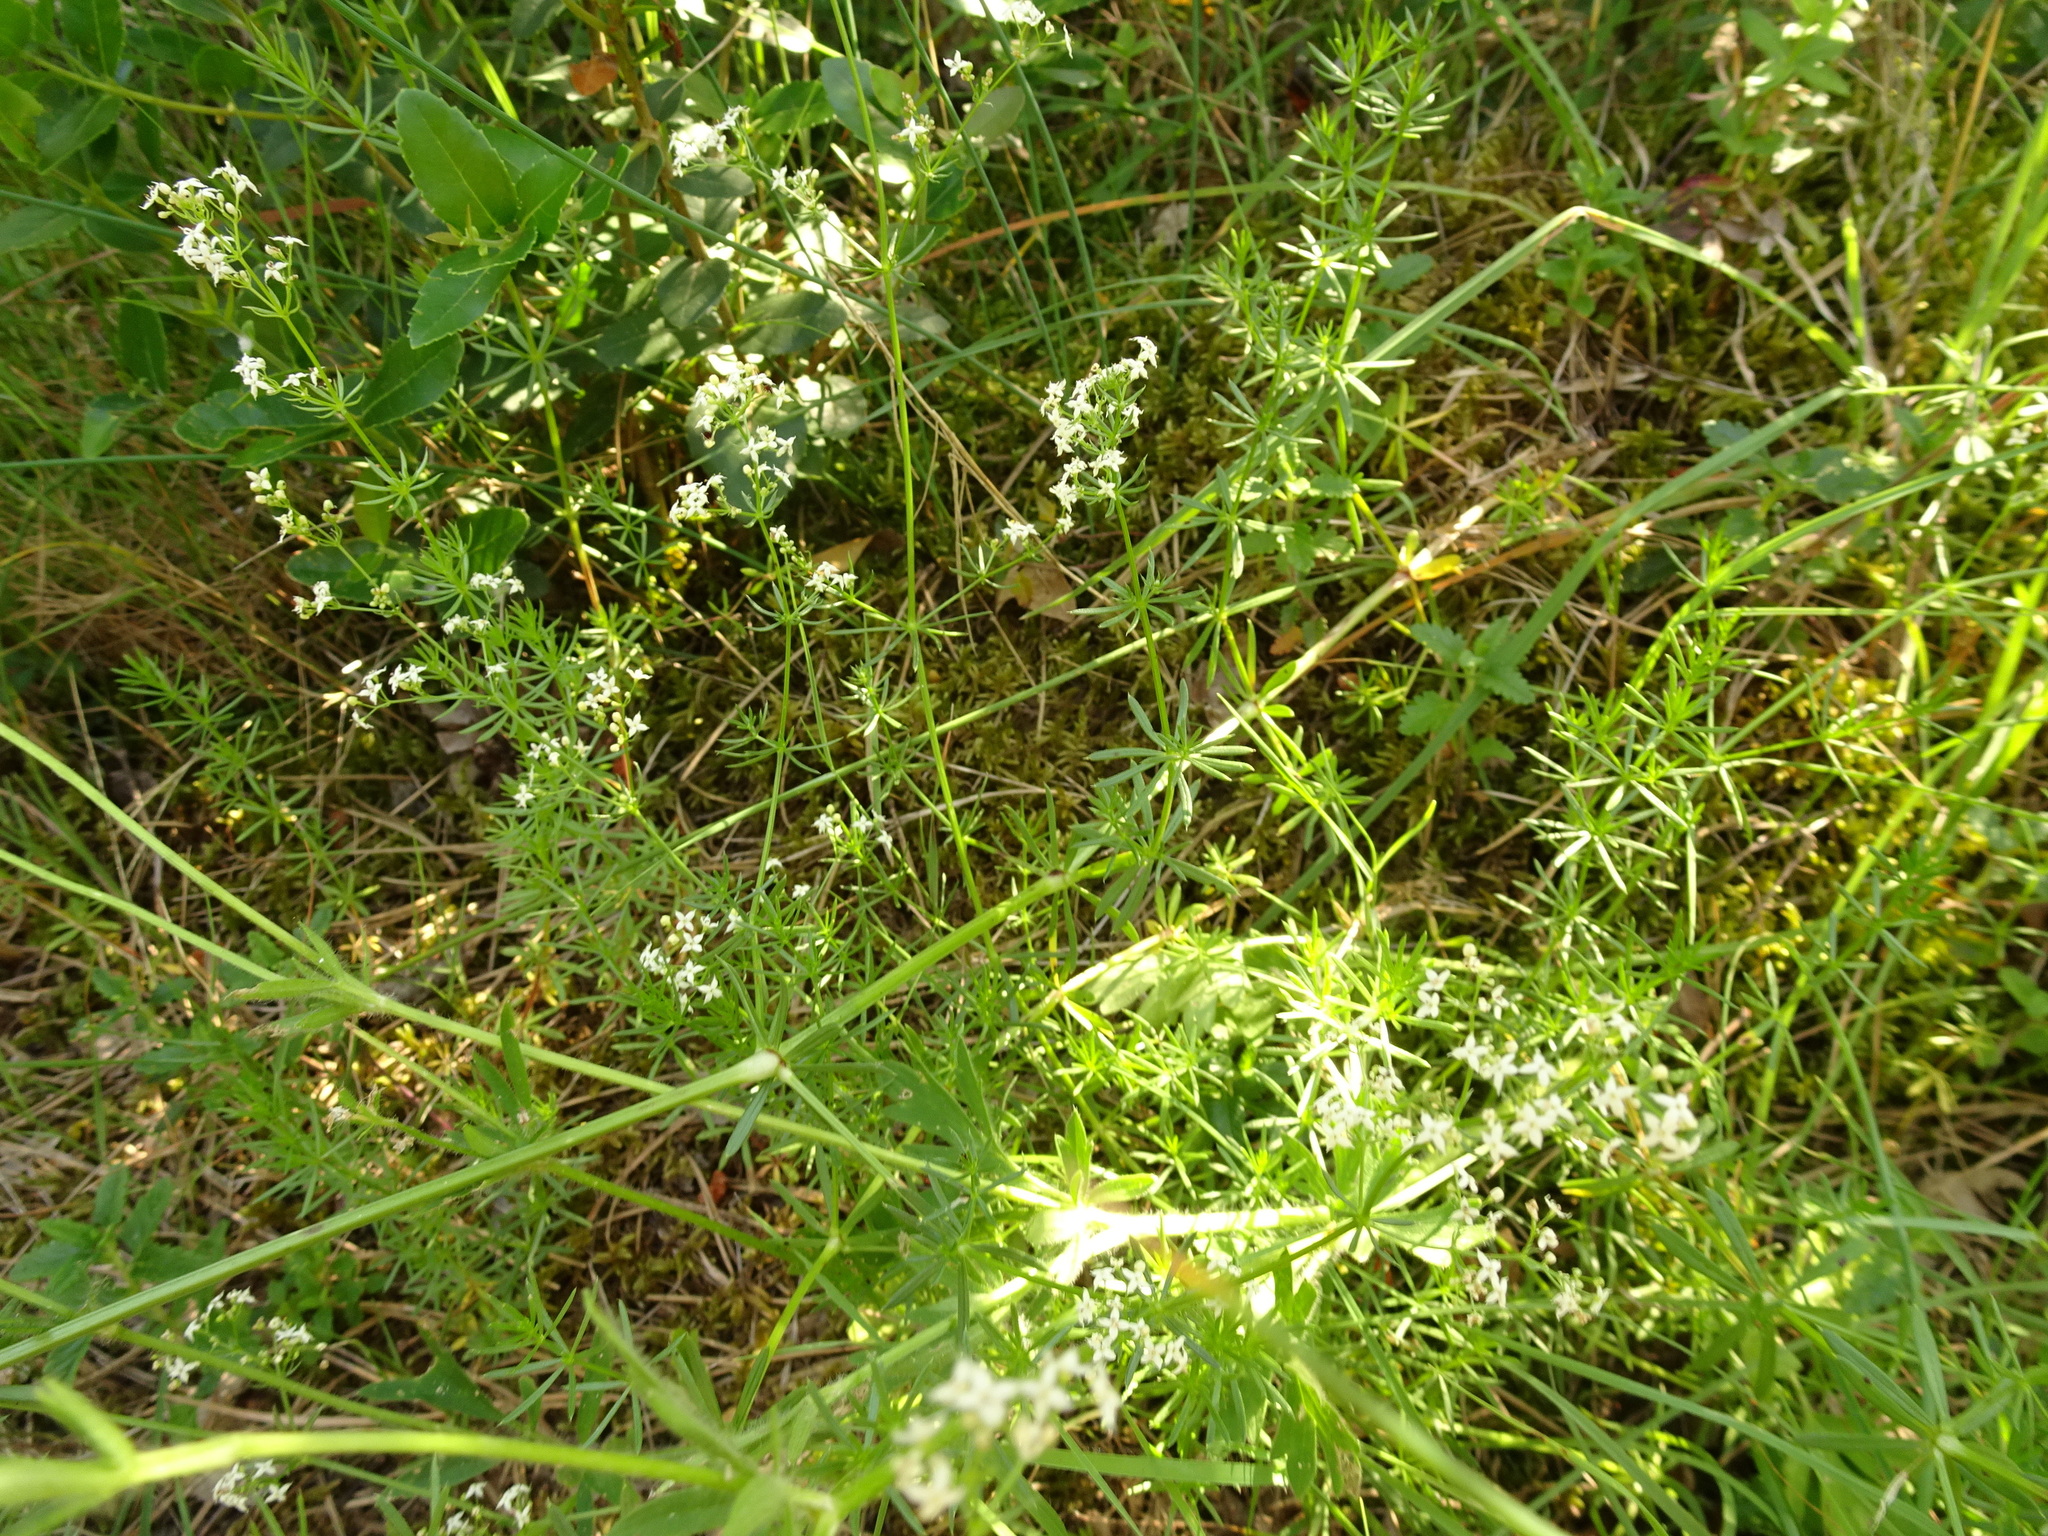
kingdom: Plantae
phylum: Tracheophyta
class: Magnoliopsida
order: Gentianales
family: Rubiaceae
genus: Galium
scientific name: Galium album
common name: White bedstraw
